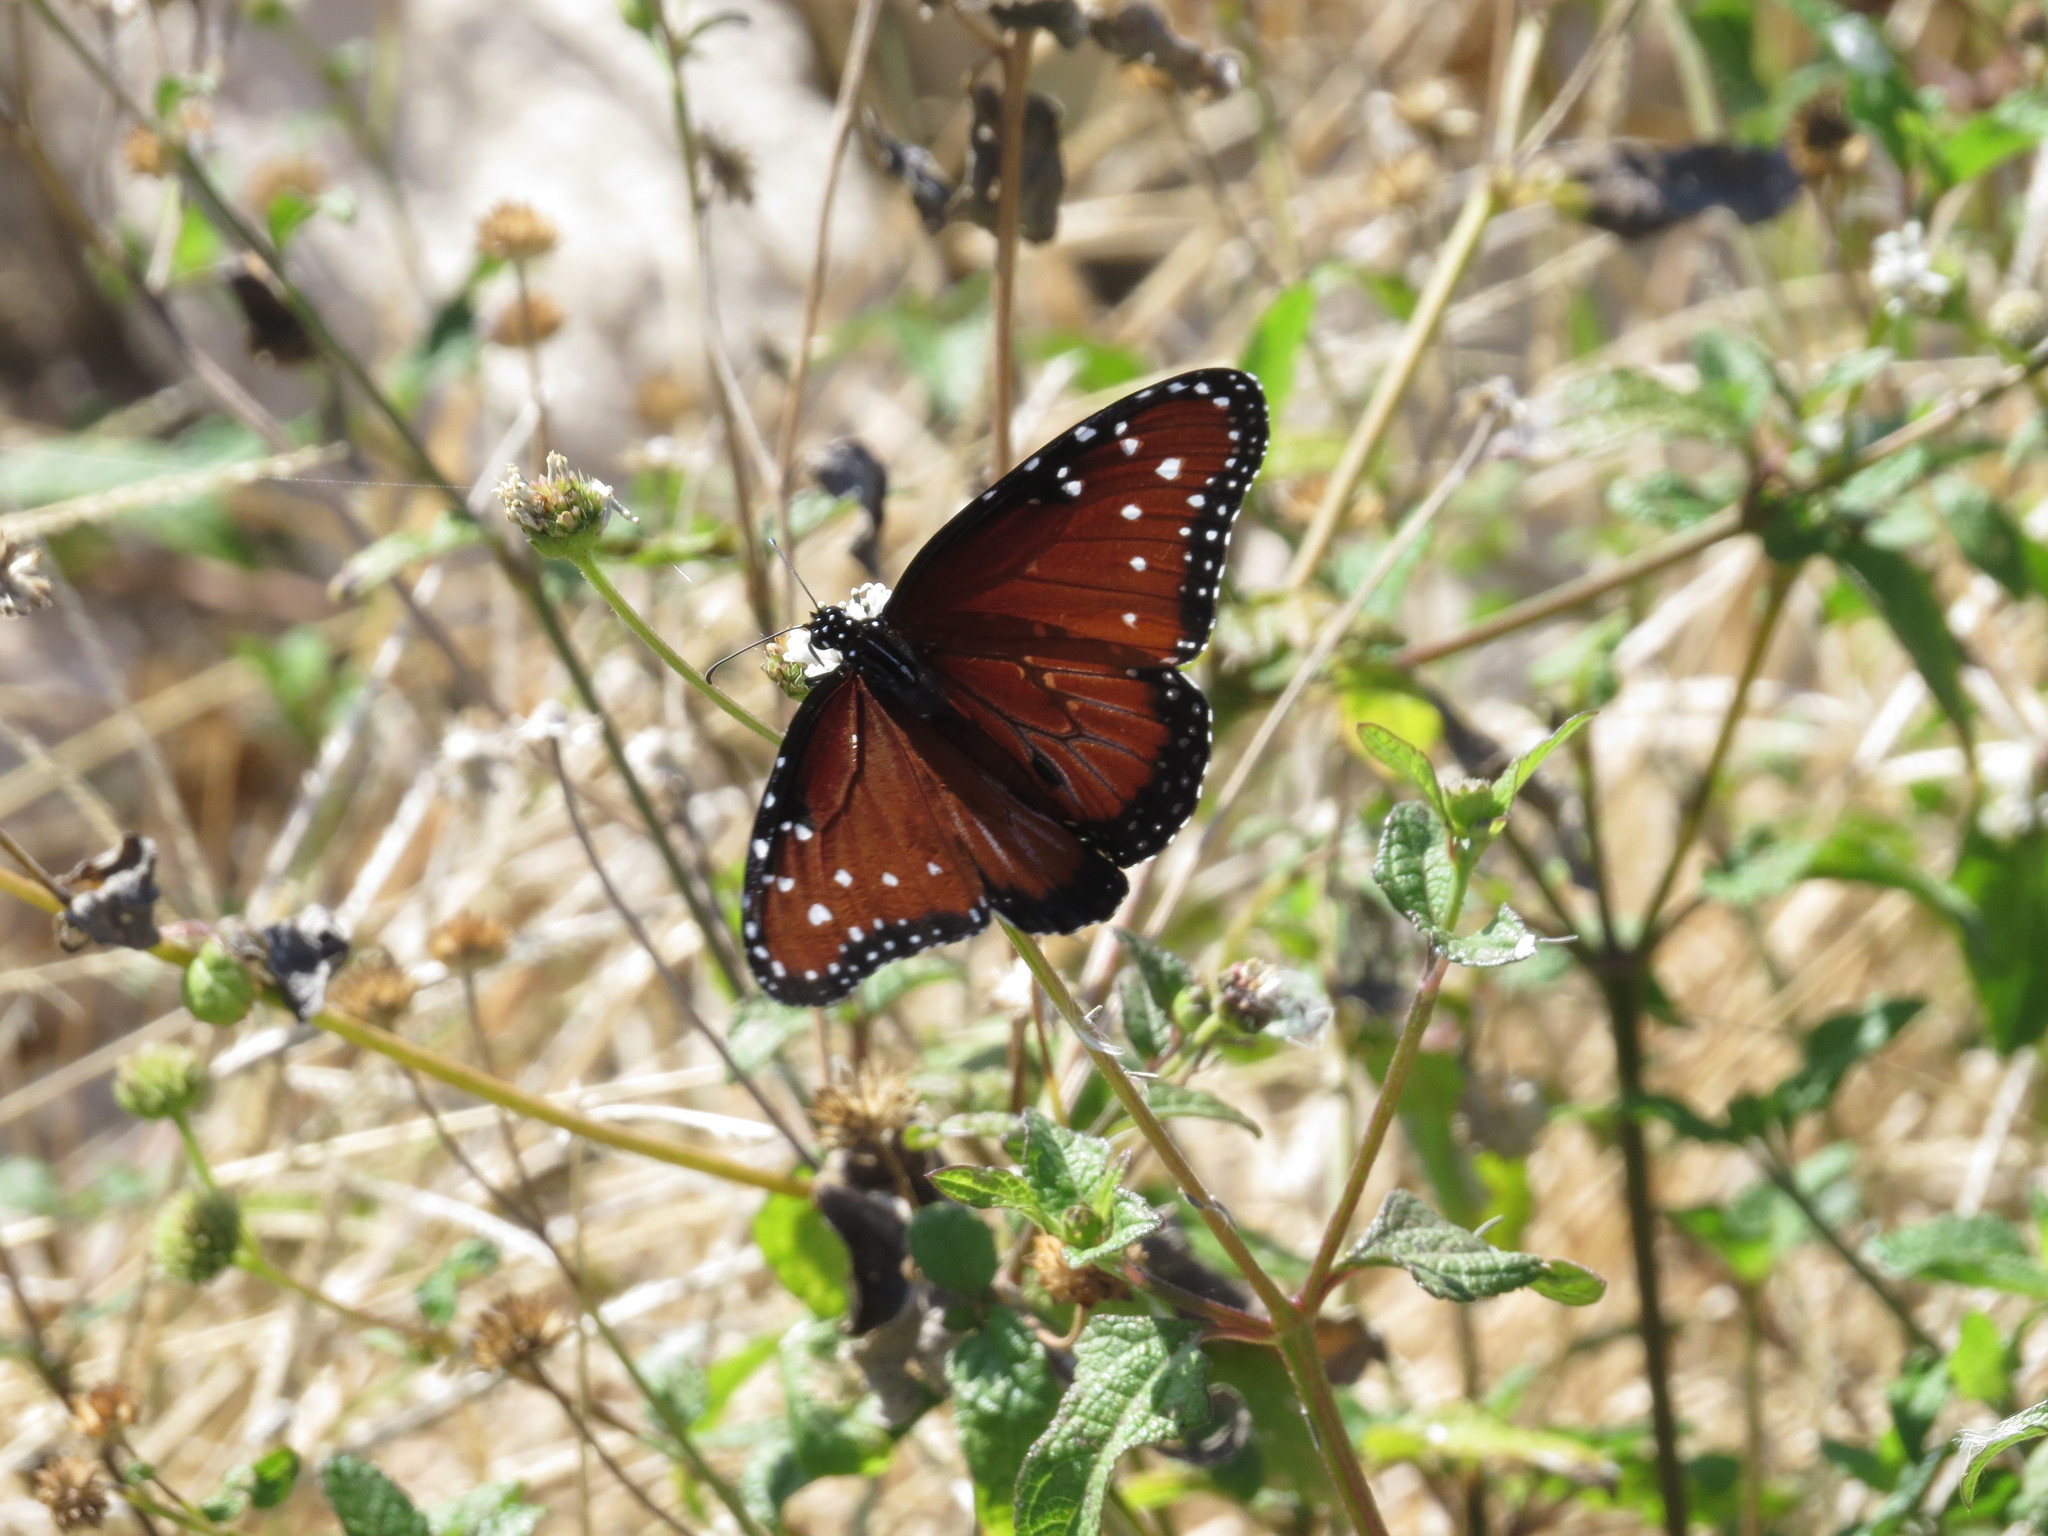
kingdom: Animalia
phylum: Arthropoda
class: Insecta
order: Lepidoptera
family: Nymphalidae
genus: Danaus
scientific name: Danaus gilippus
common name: Queen
